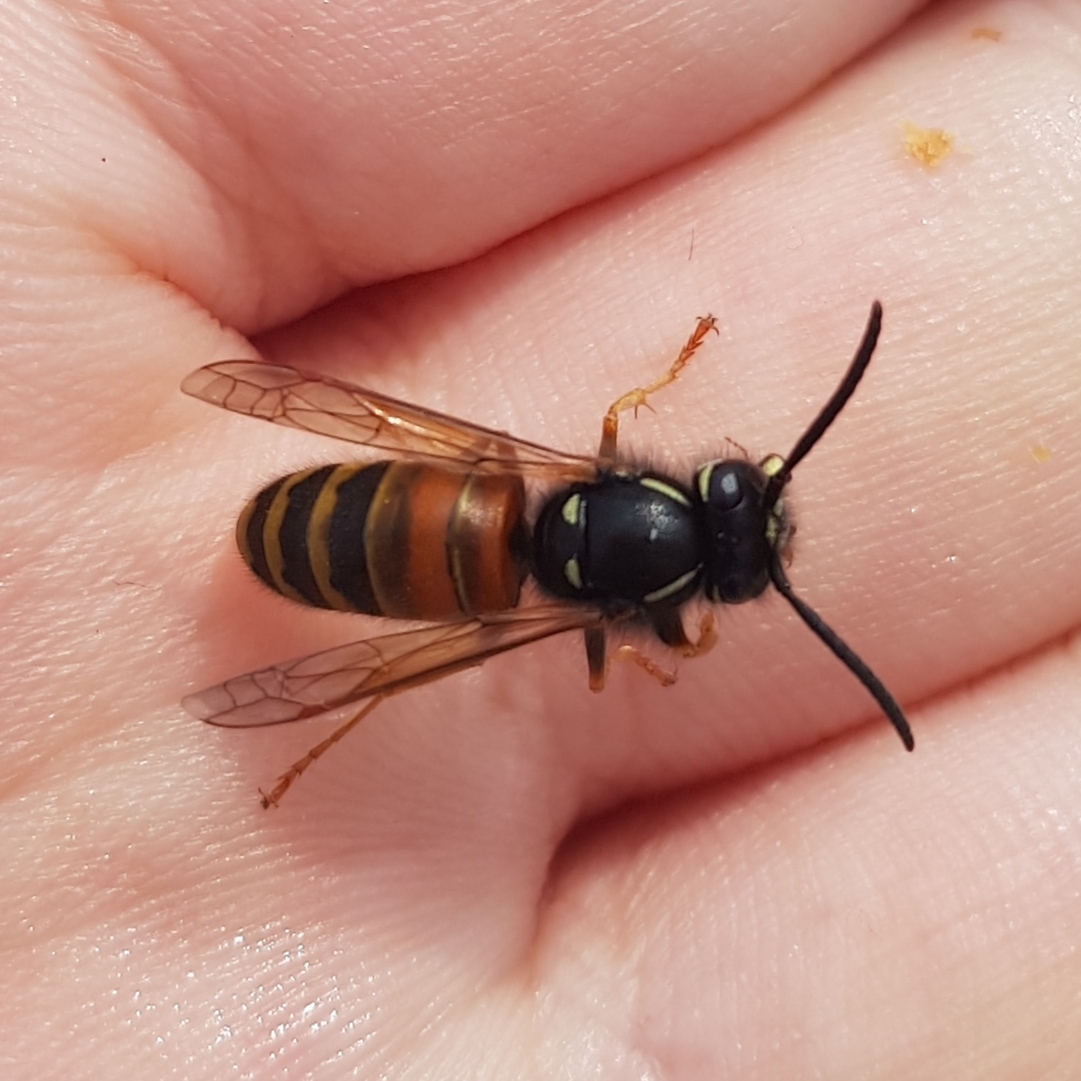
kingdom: Animalia
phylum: Arthropoda
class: Insecta
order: Hymenoptera
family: Vespidae
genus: Vespula
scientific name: Vespula rufa
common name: Red wasp
